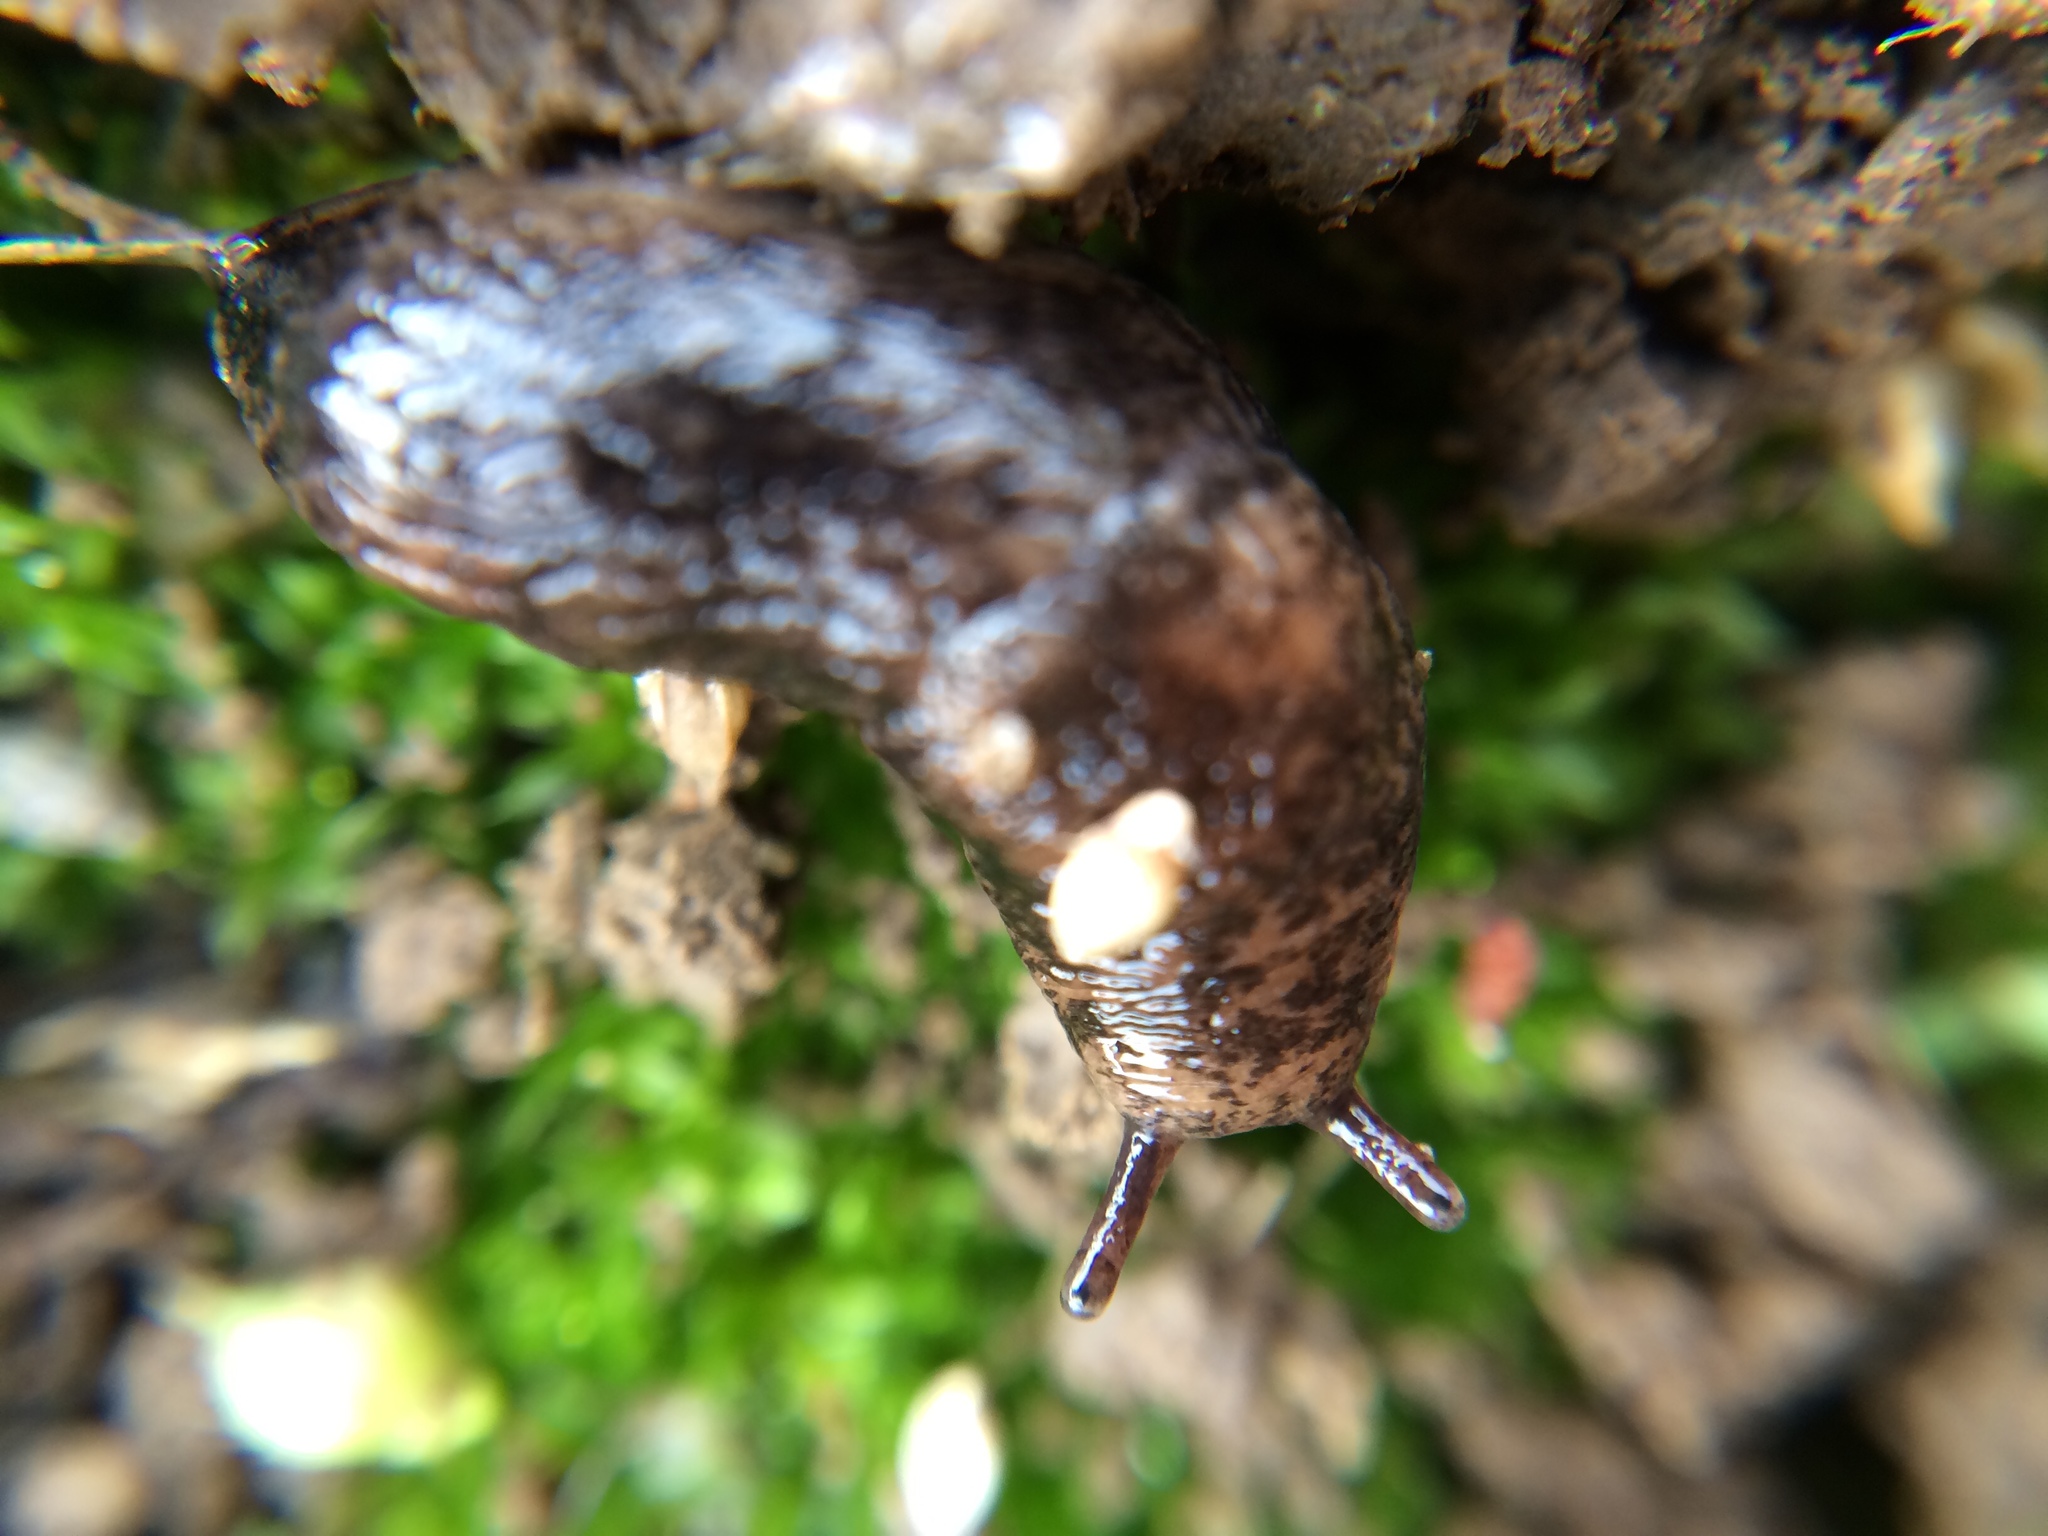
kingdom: Animalia
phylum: Mollusca
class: Gastropoda
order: Stylommatophora
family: Agriolimacidae
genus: Deroceras
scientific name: Deroceras reticulatum
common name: Gray field slug
